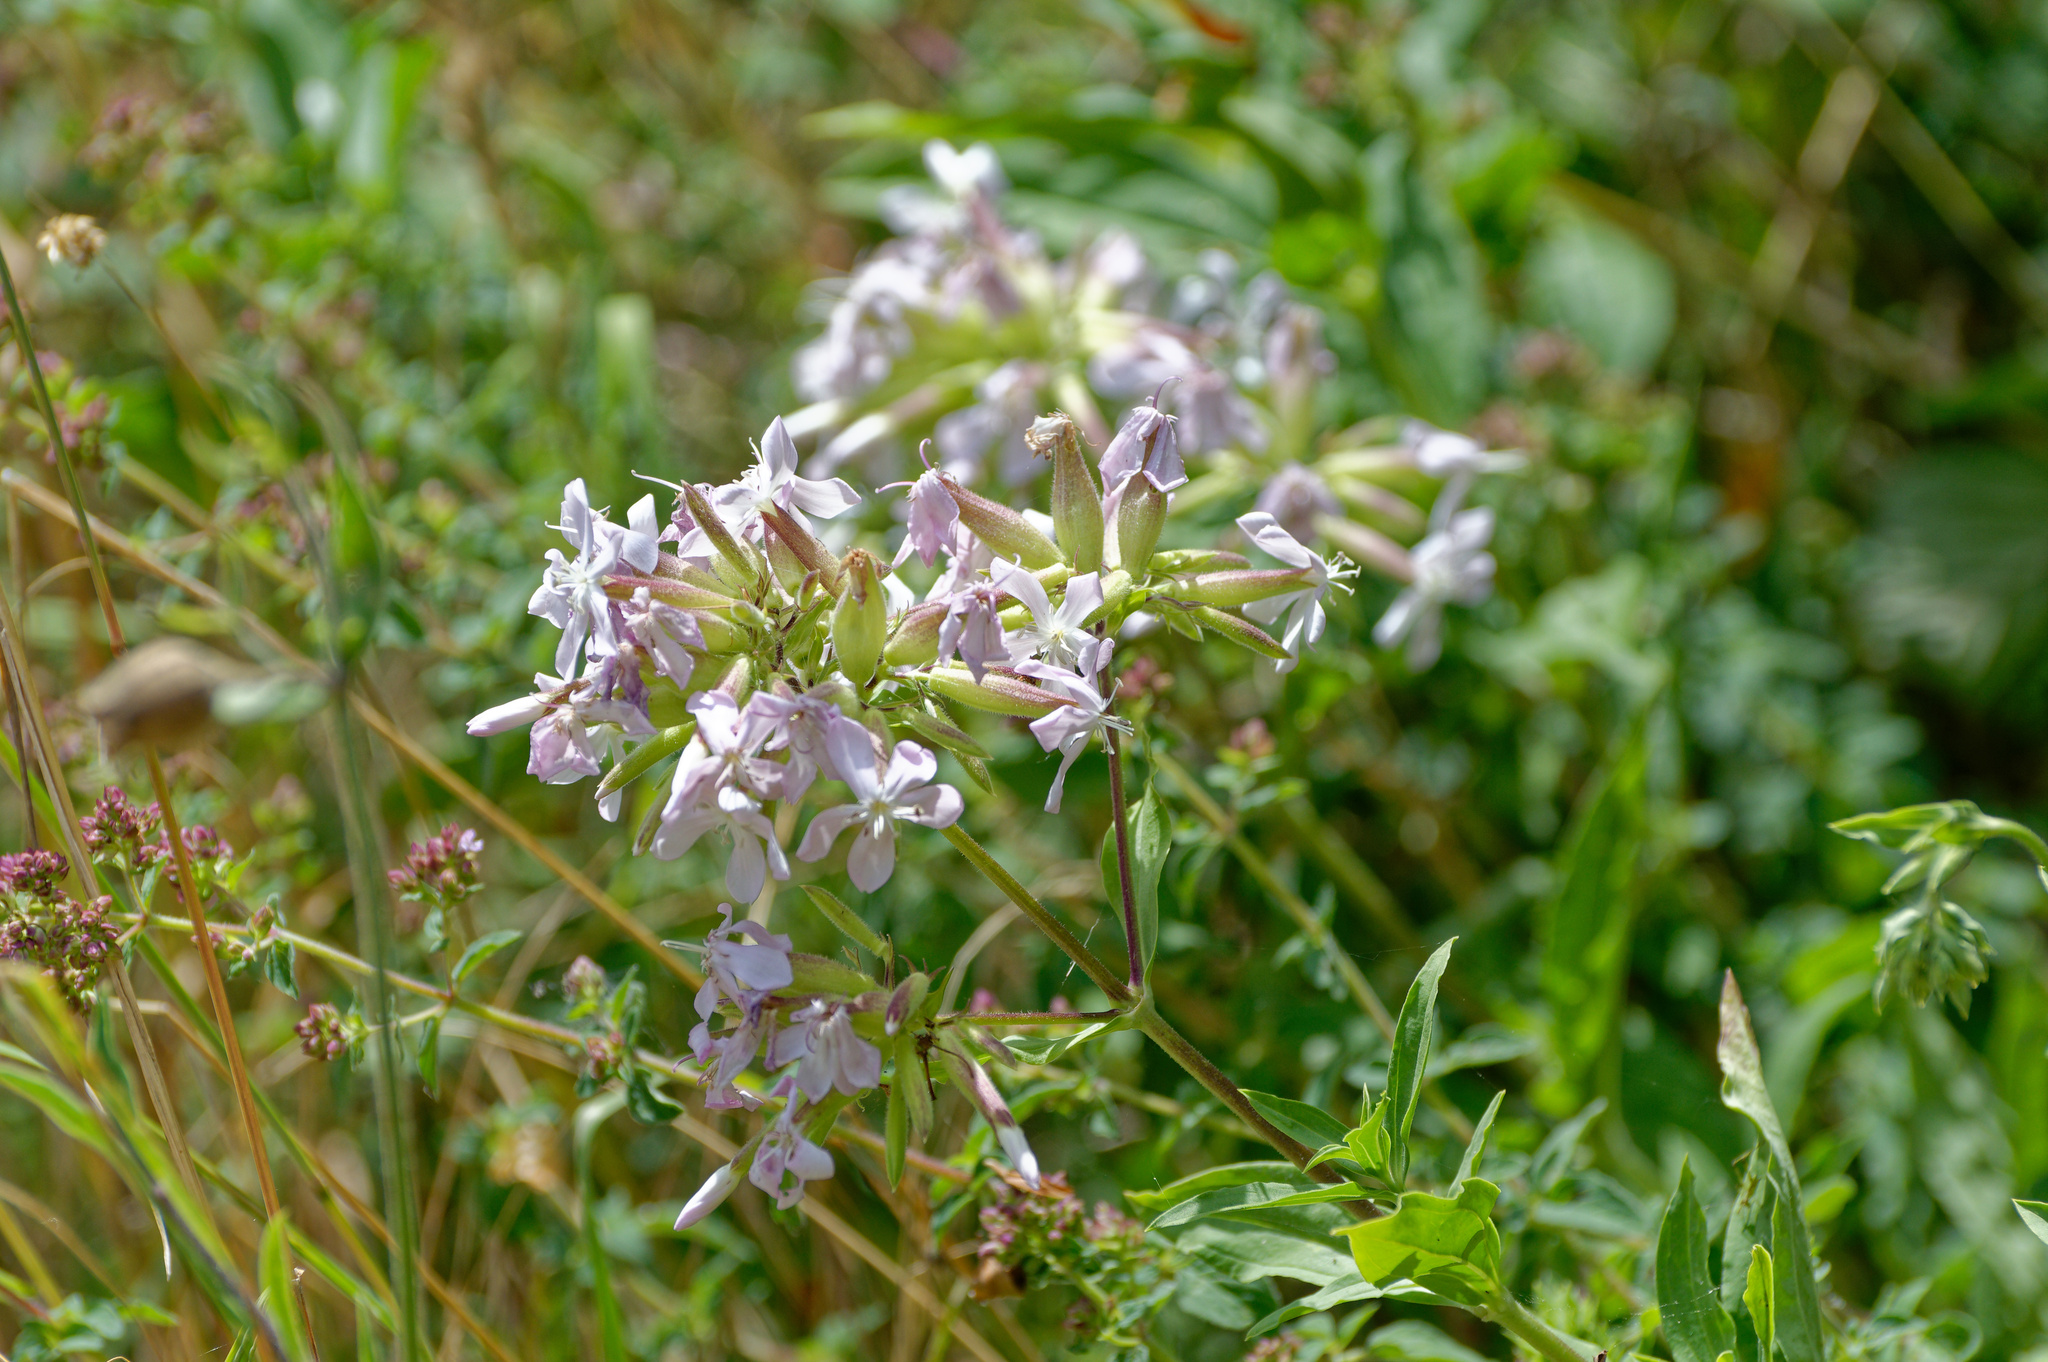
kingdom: Plantae
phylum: Tracheophyta
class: Magnoliopsida
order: Caryophyllales
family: Caryophyllaceae
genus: Saponaria
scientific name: Saponaria officinalis
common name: Soapwort
